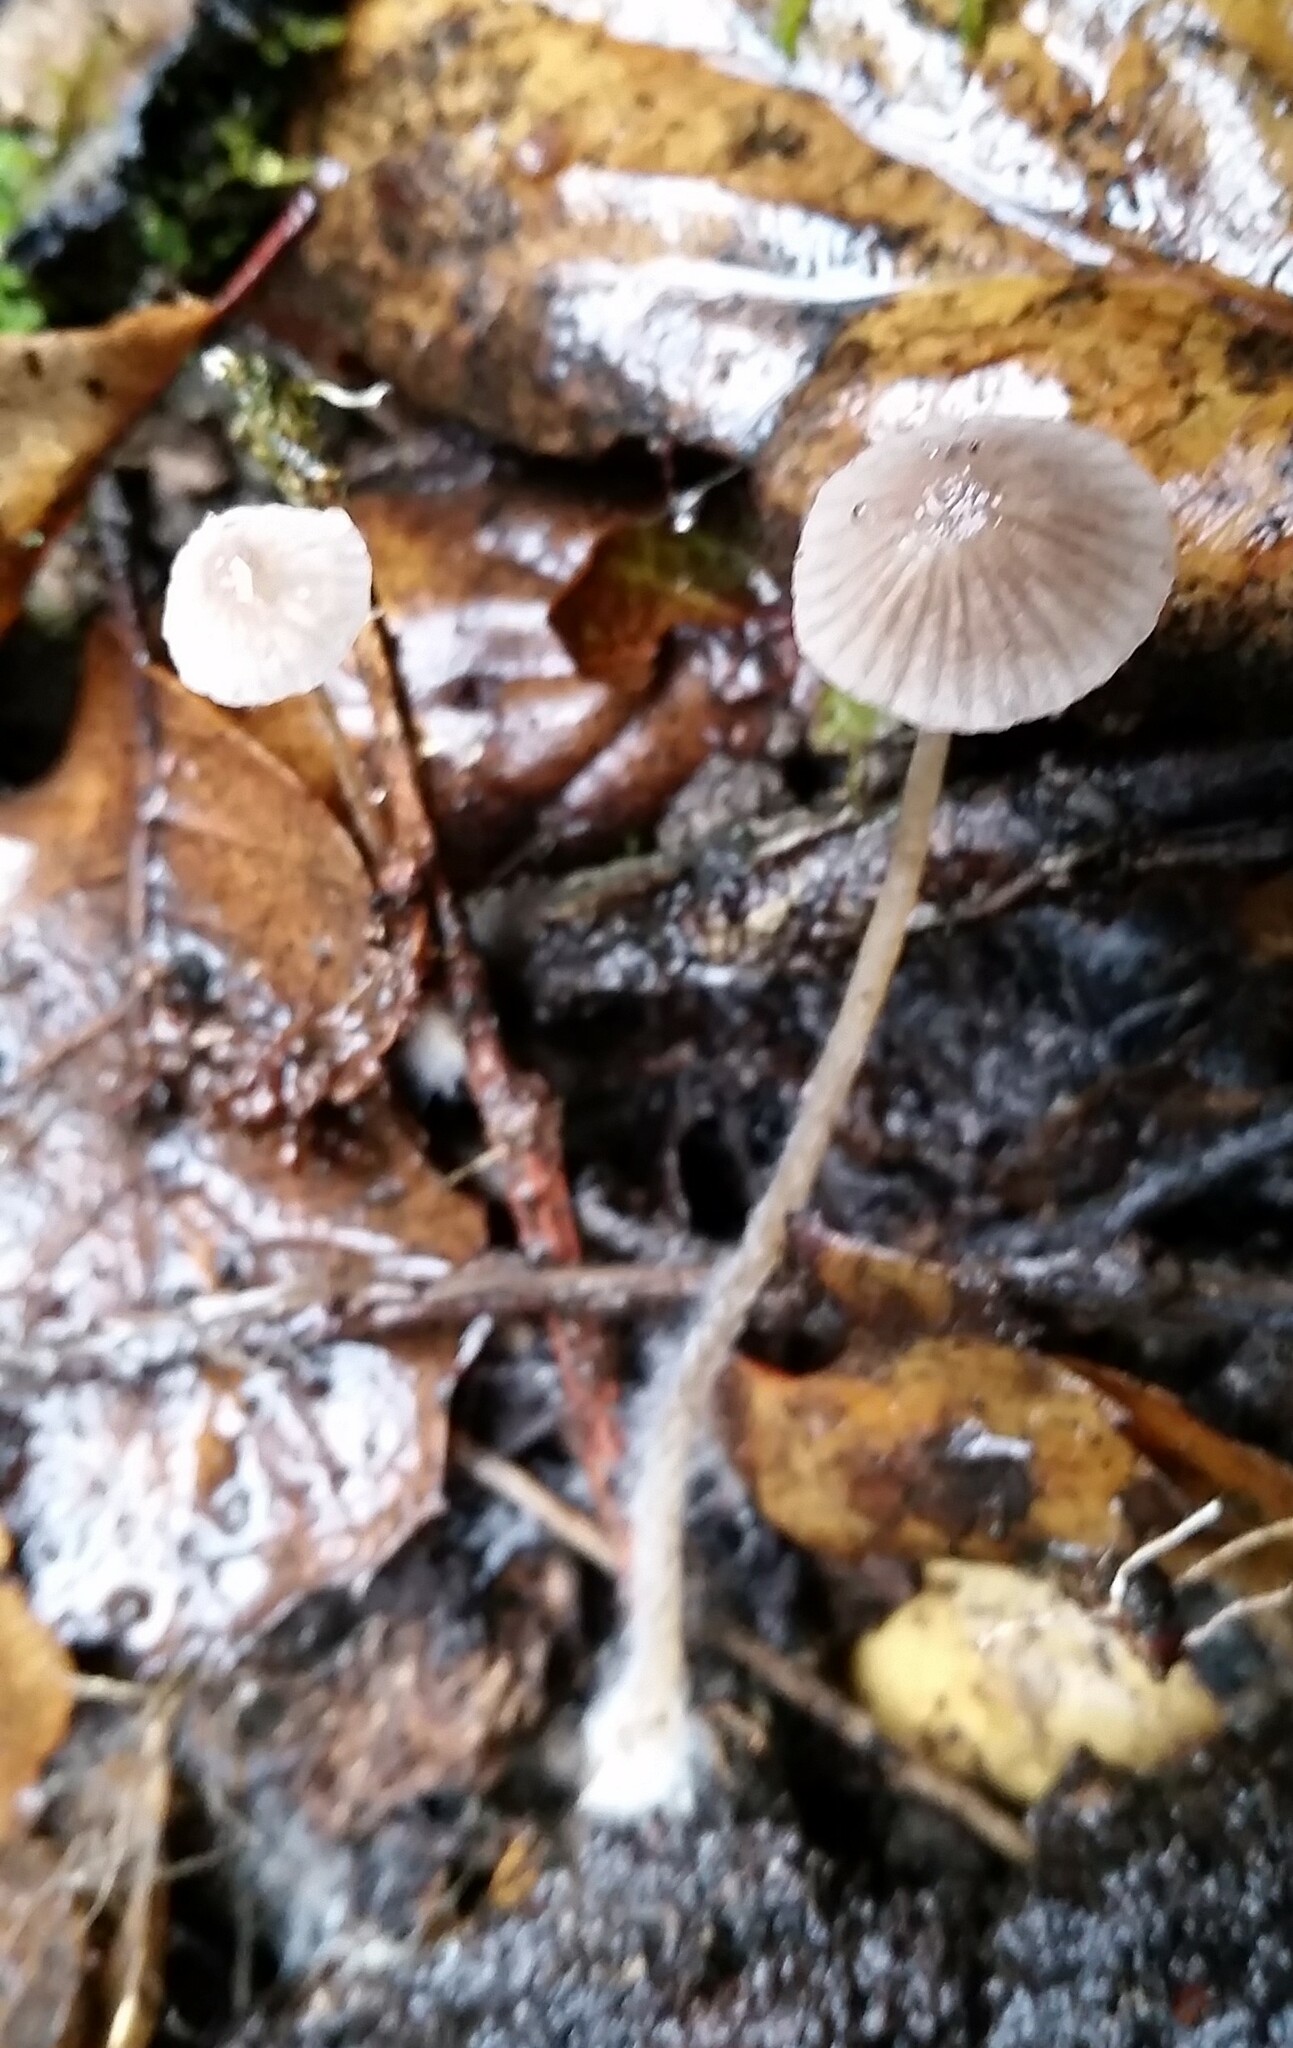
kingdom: Fungi
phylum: Basidiomycota
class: Agaricomycetes
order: Agaricales
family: Porotheleaceae
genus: Phloeomana
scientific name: Phloeomana speirea
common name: Bark bonnet
